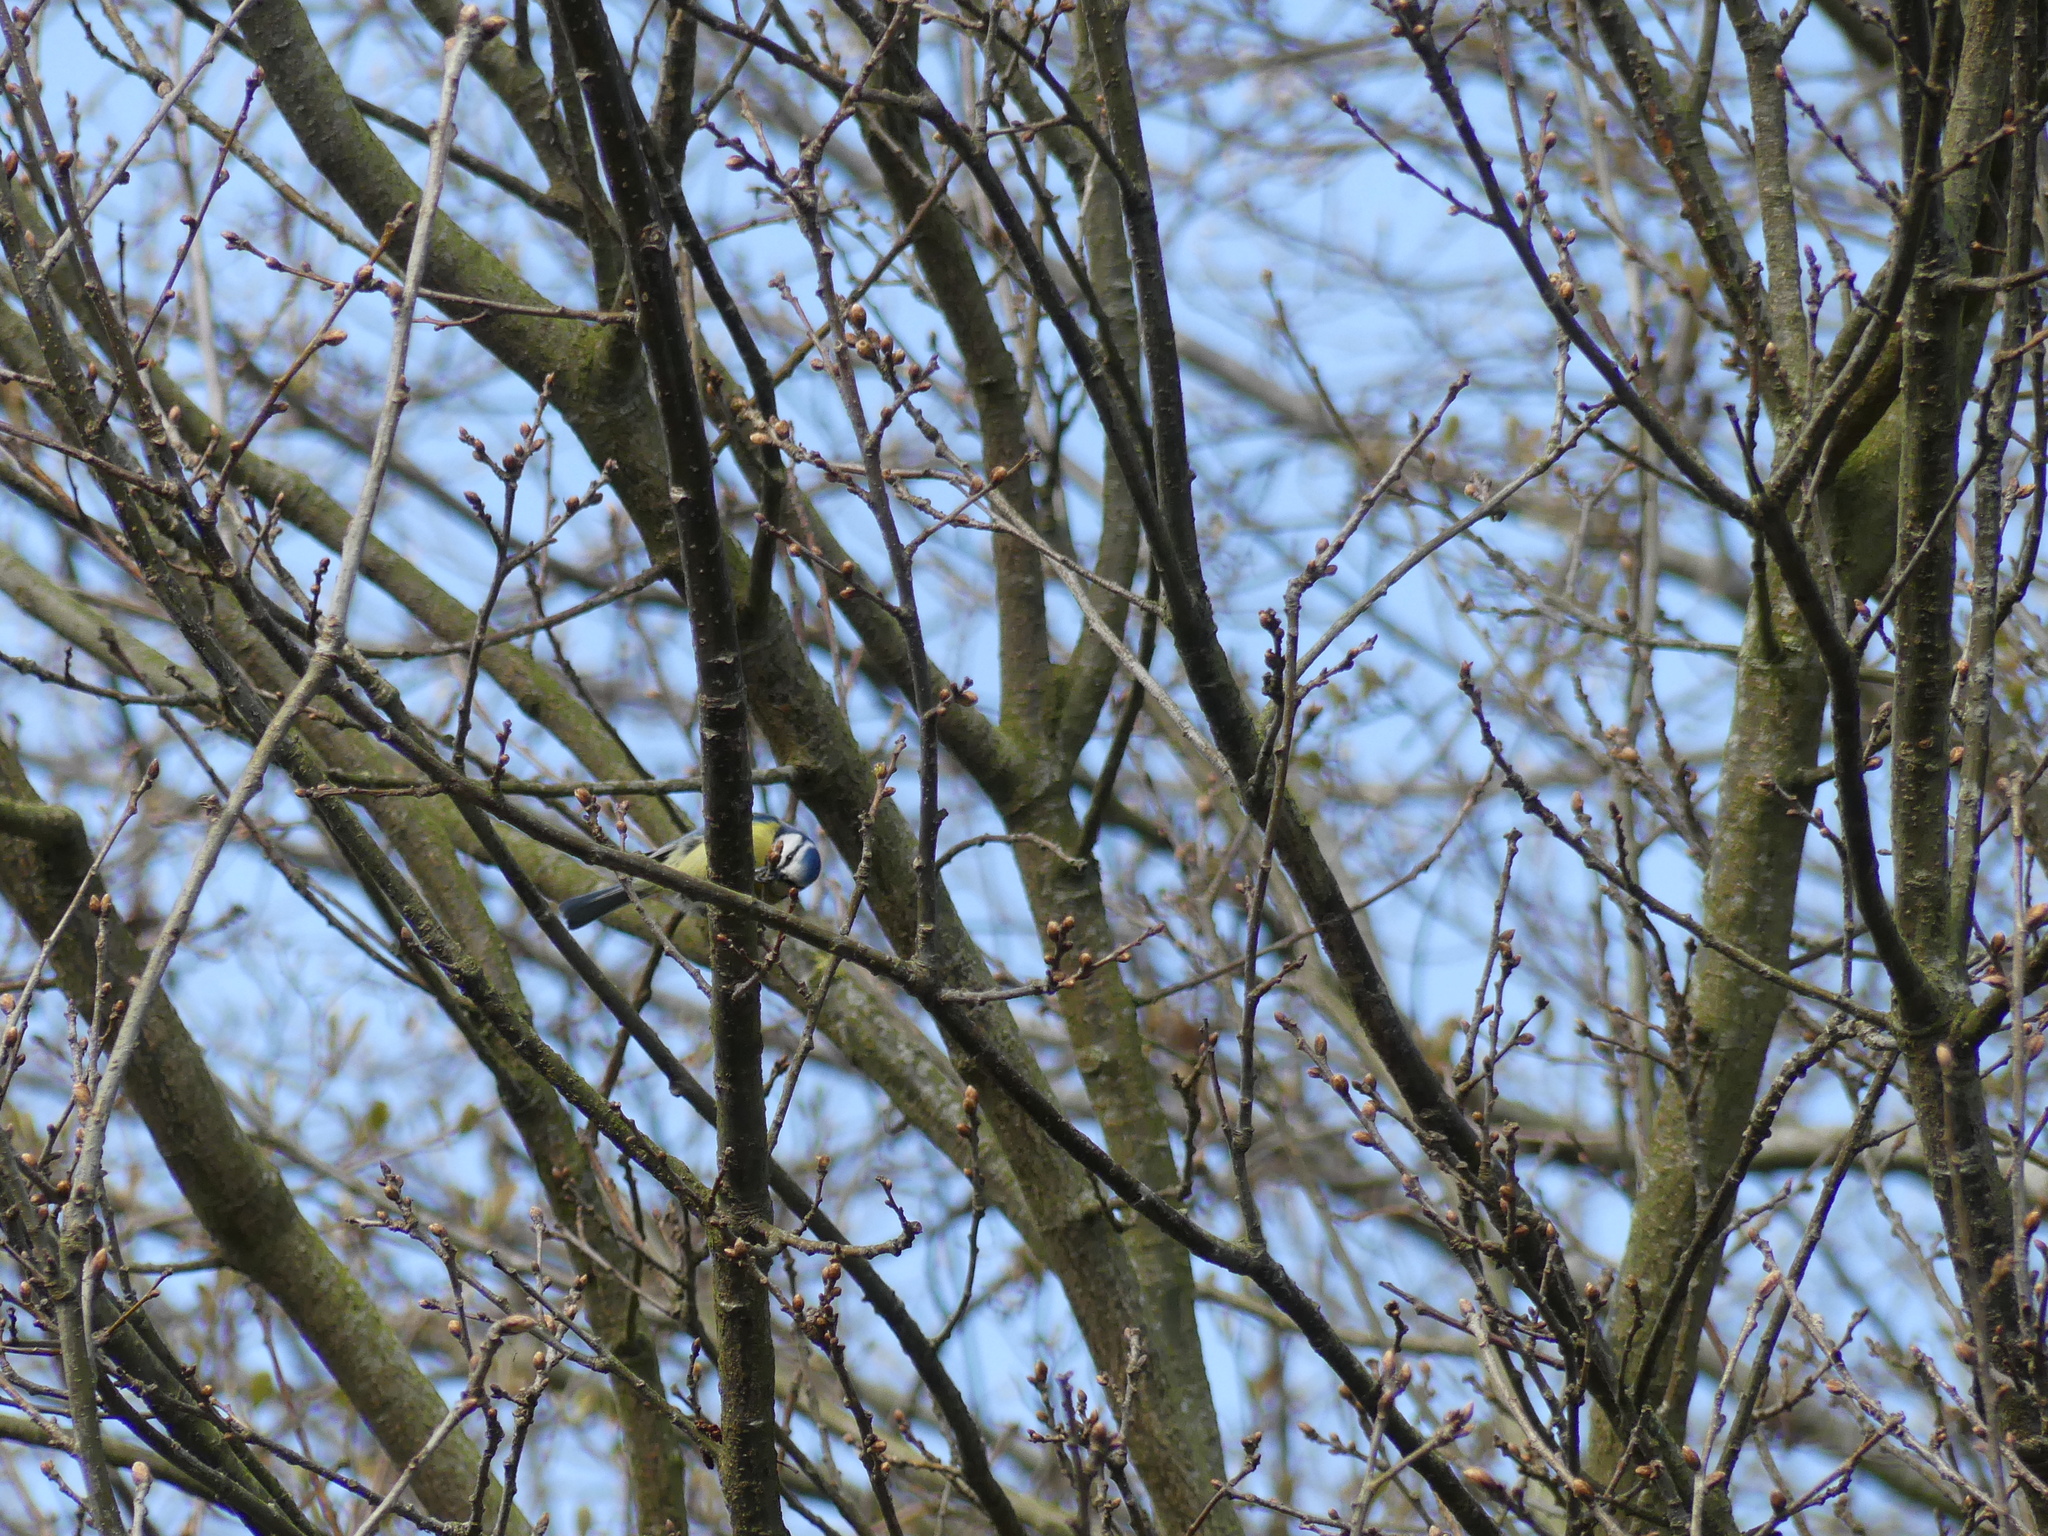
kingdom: Animalia
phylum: Chordata
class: Aves
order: Passeriformes
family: Paridae
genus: Cyanistes
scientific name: Cyanistes caeruleus
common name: Eurasian blue tit
